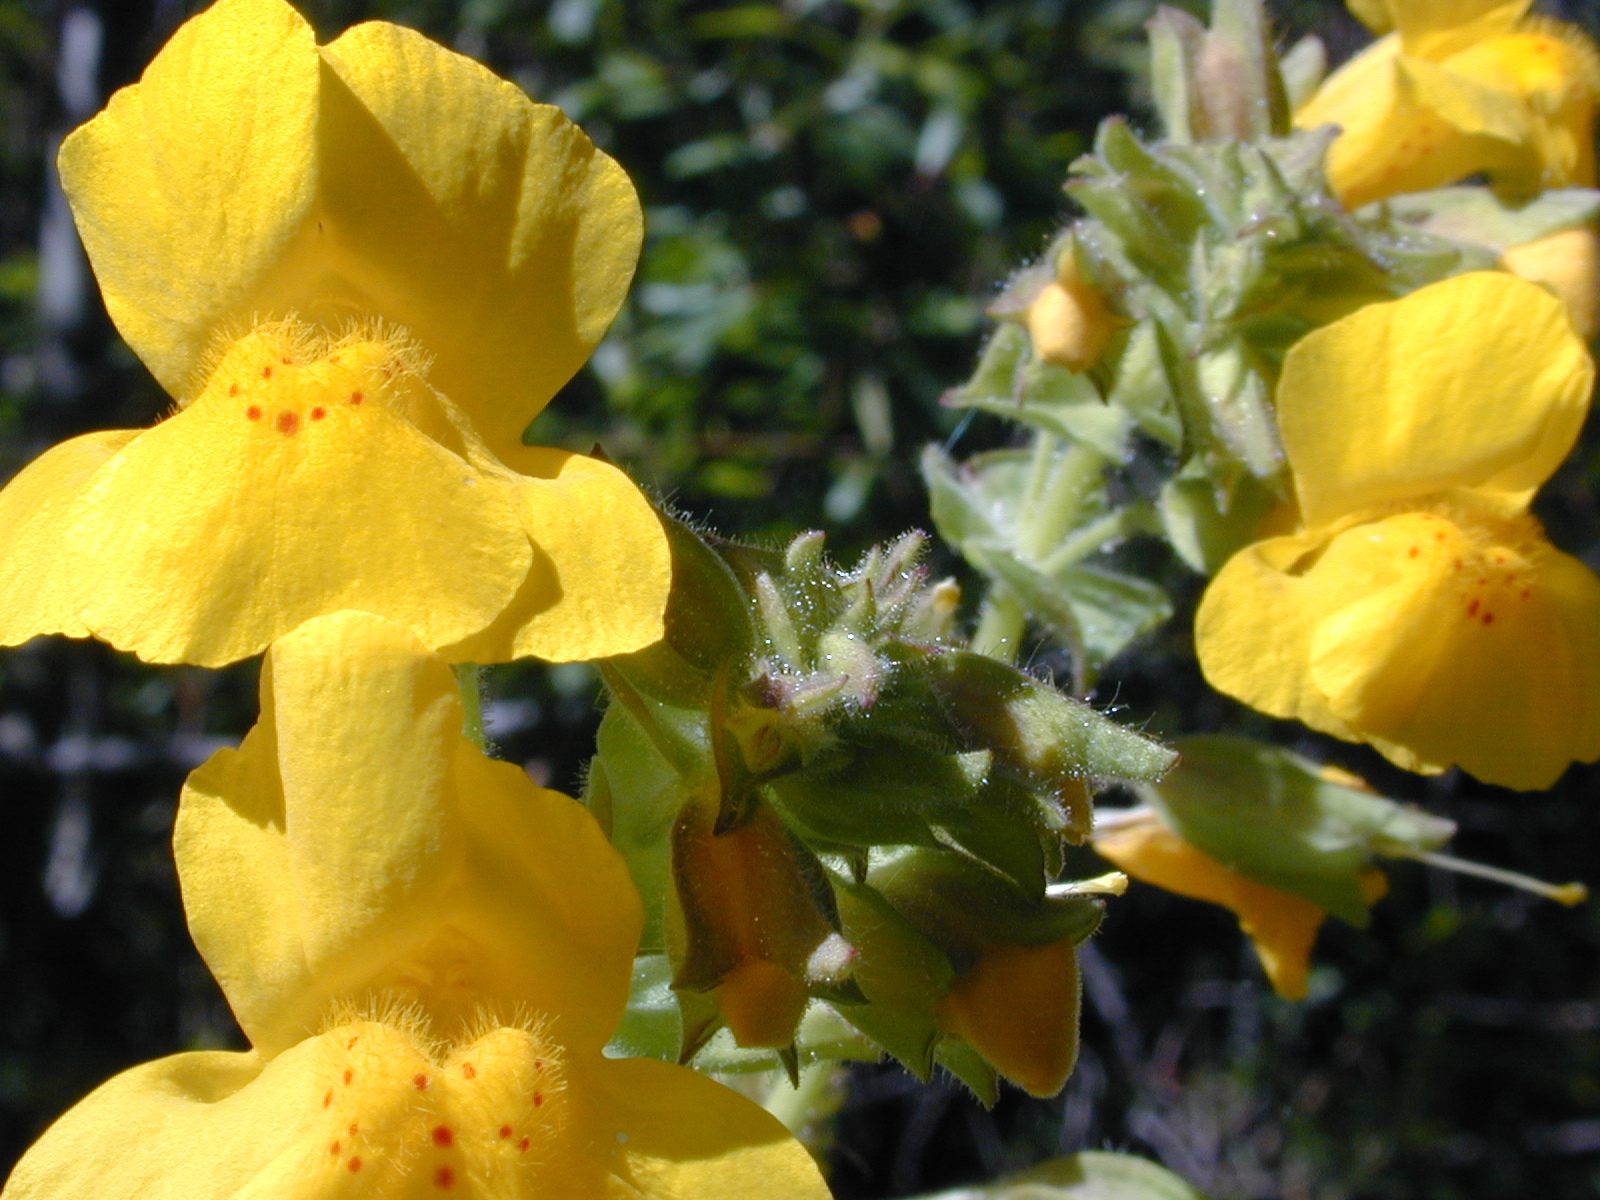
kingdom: Plantae
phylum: Tracheophyta
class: Magnoliopsida
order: Lamiales
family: Phrymaceae
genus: Erythranthe
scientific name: Erythranthe guttata
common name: Monkeyflower
